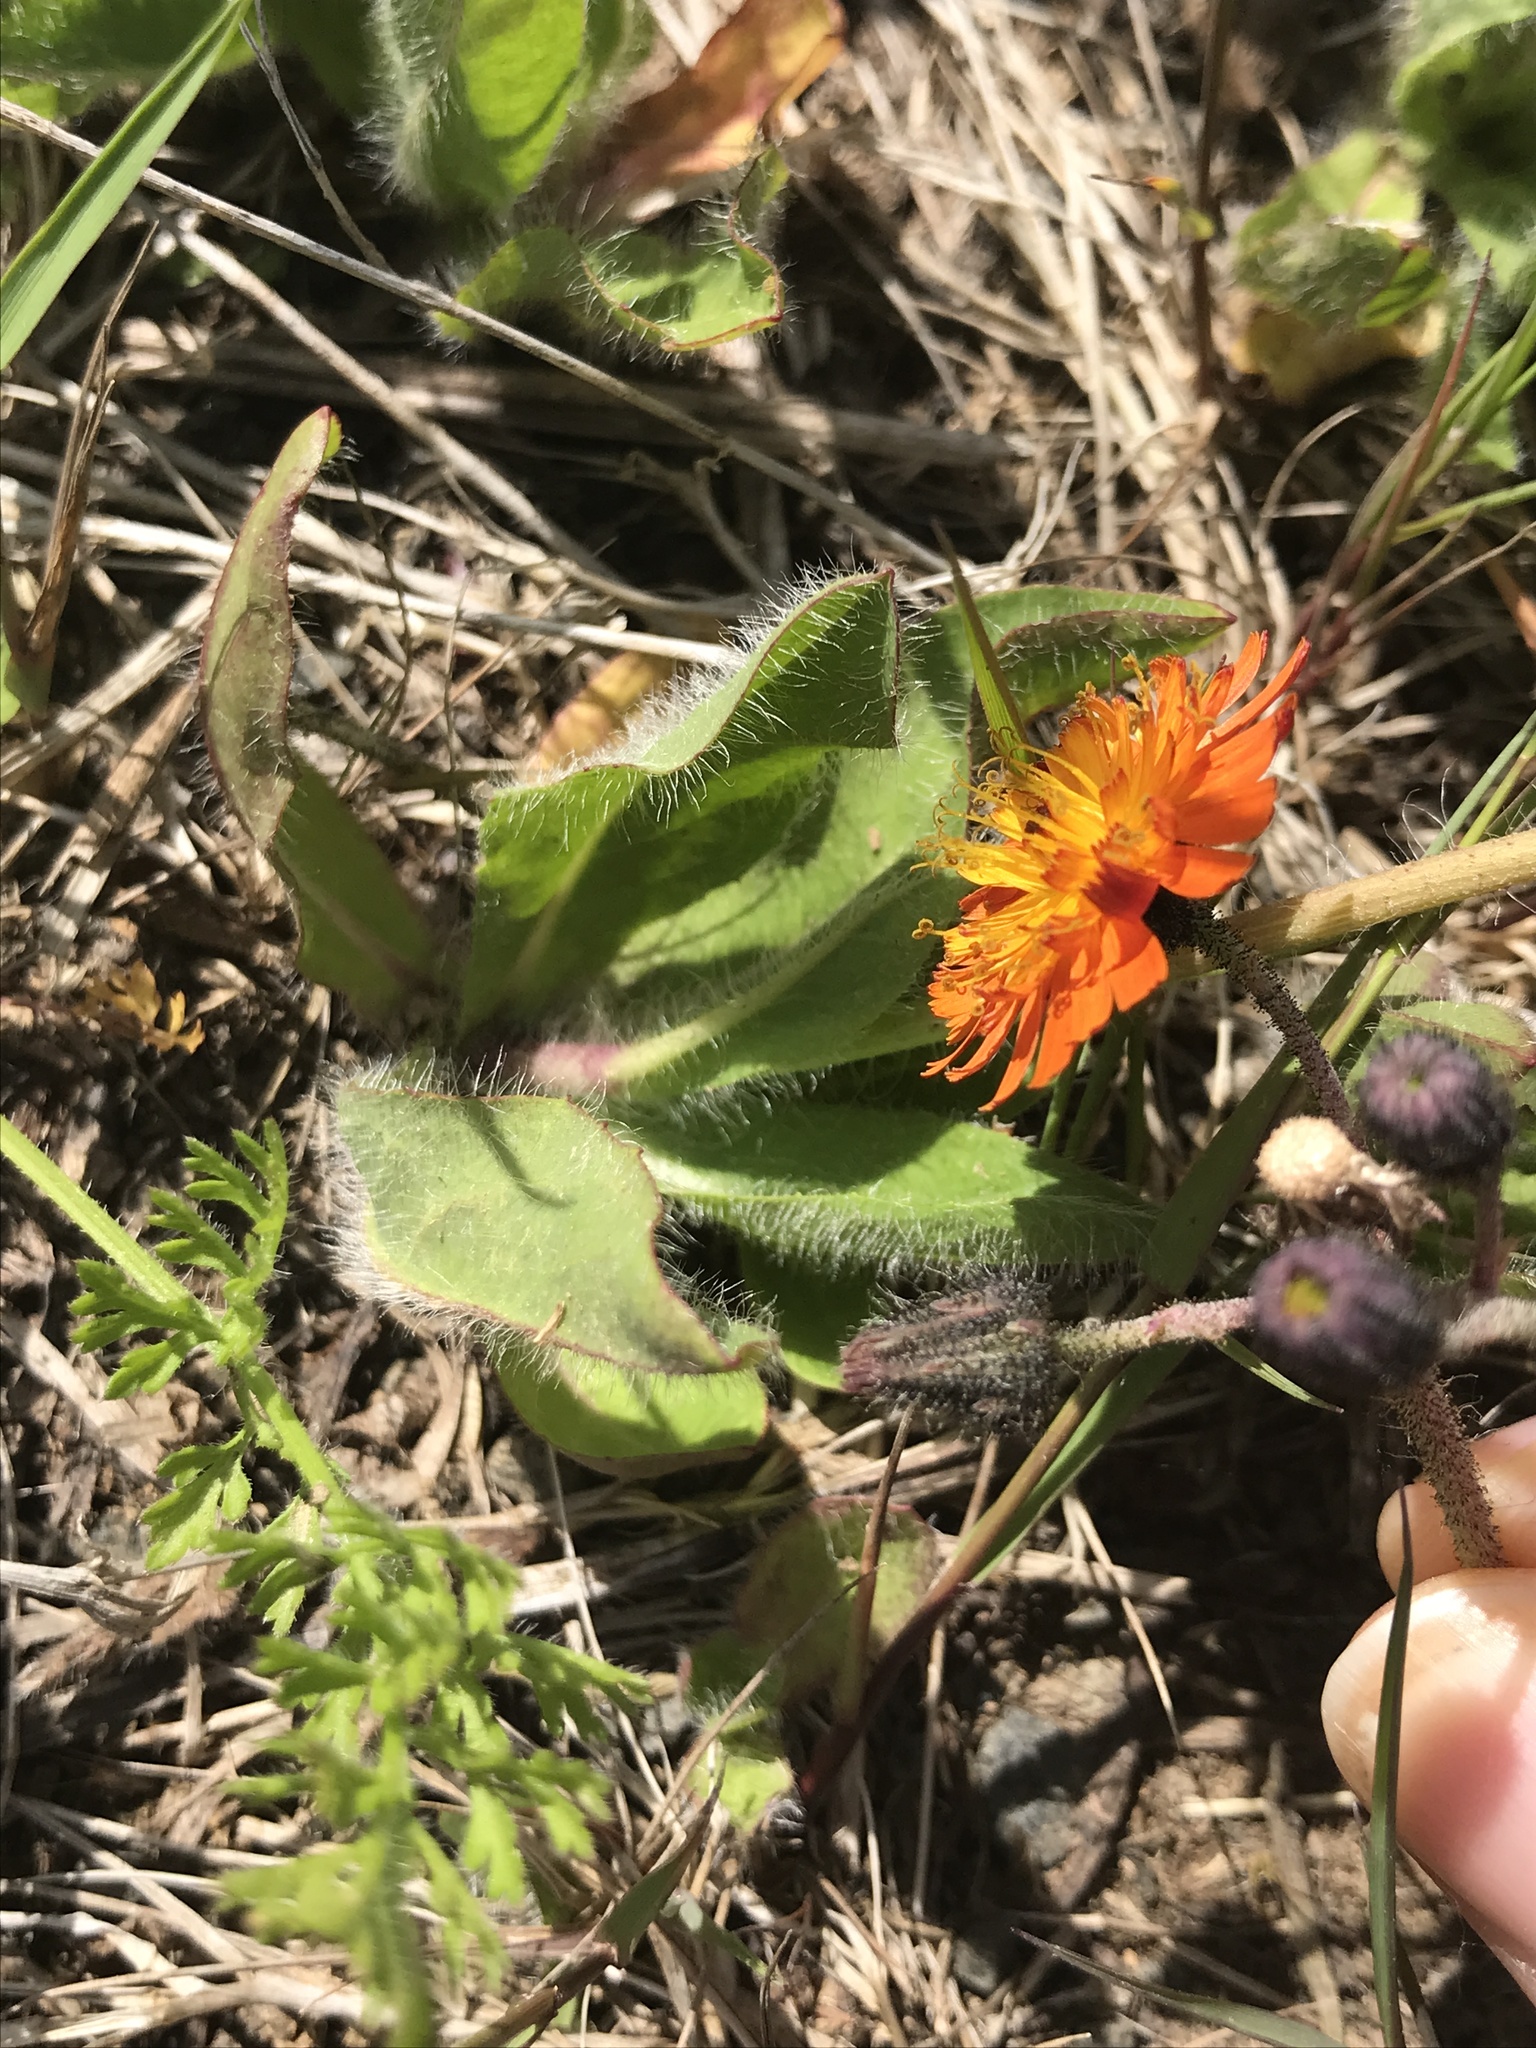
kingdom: Plantae
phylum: Tracheophyta
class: Magnoliopsida
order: Asterales
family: Asteraceae
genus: Pilosella
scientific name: Pilosella aurantiaca
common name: Fox-and-cubs
